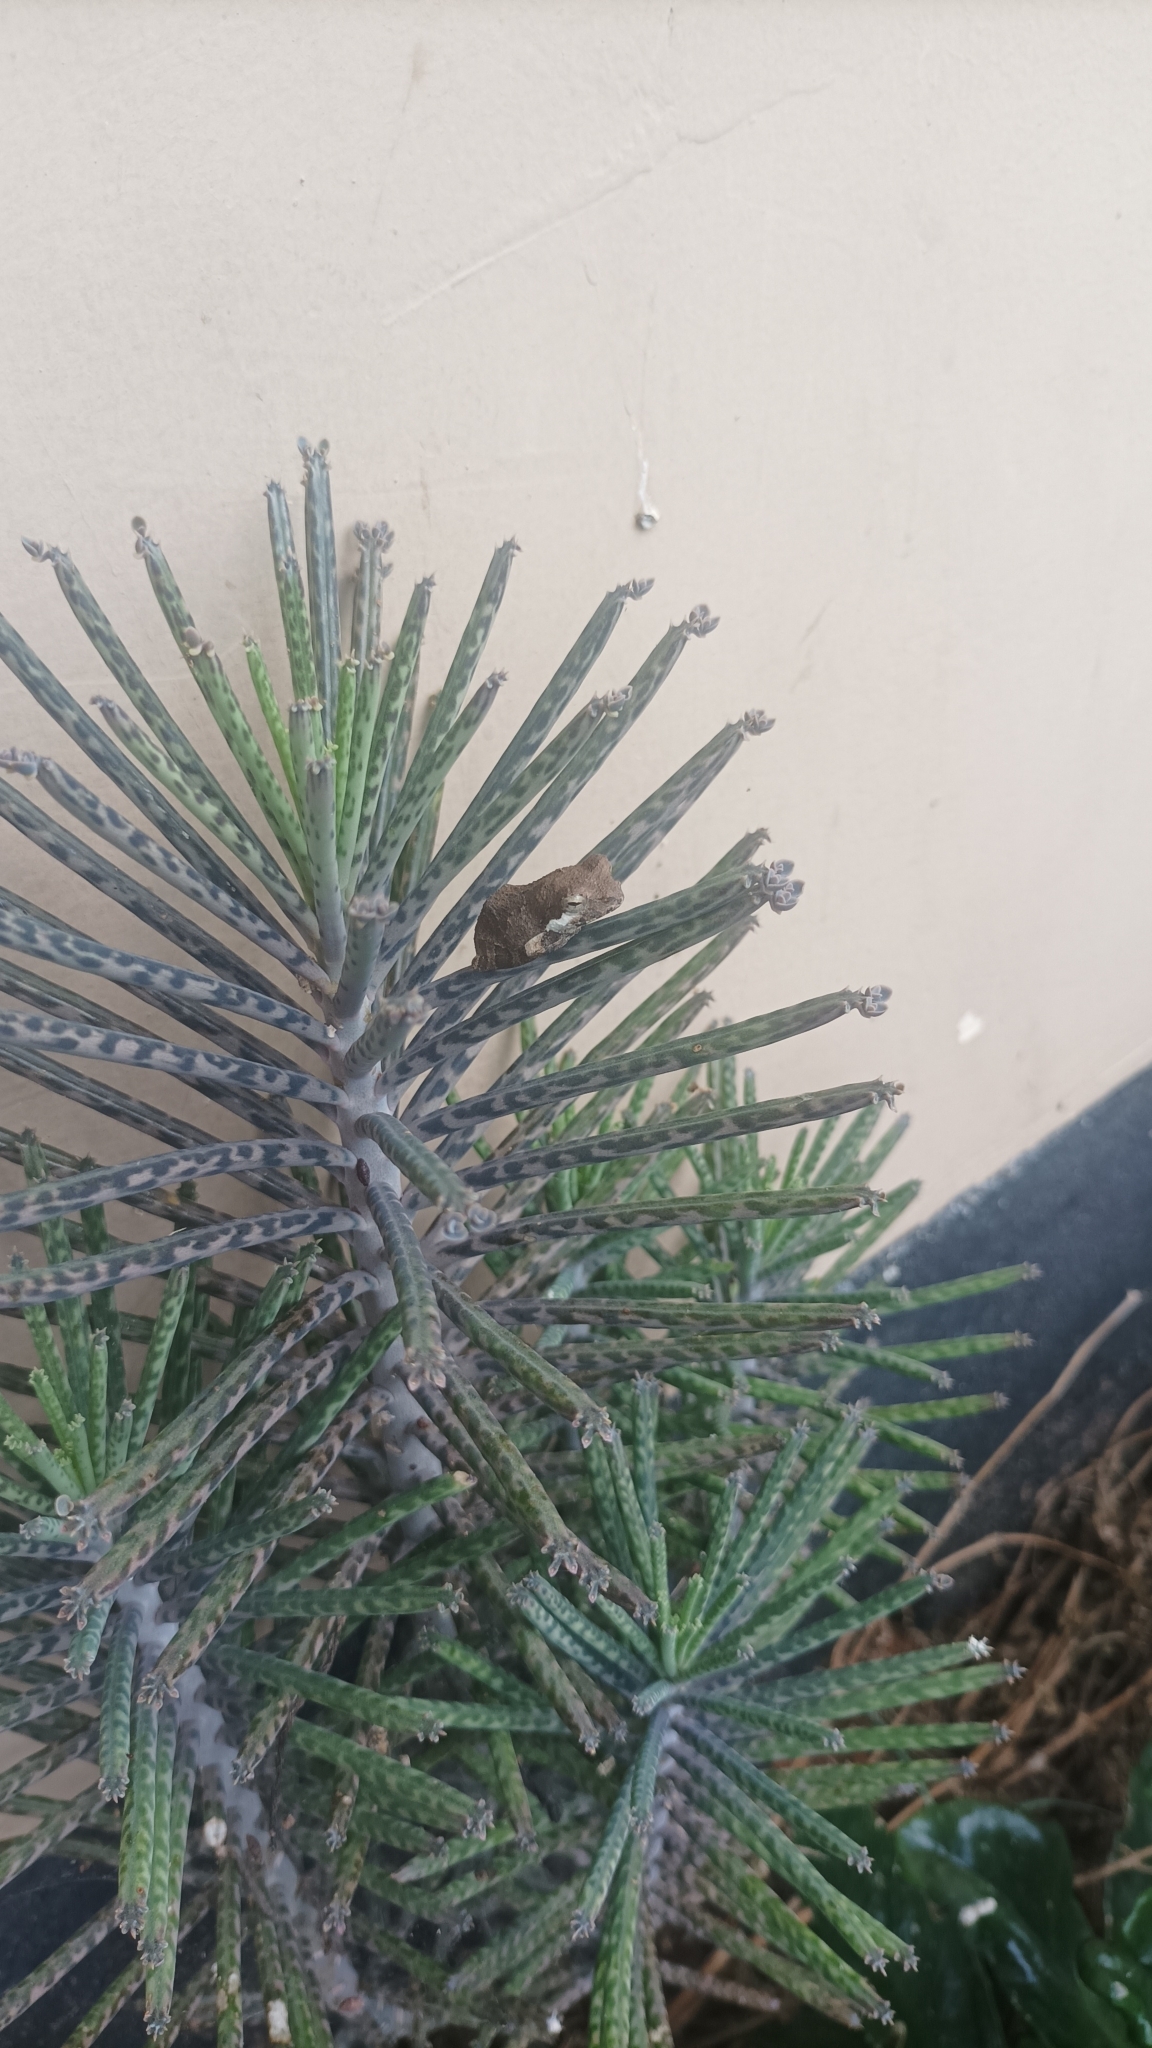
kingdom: Animalia
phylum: Chordata
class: Amphibia
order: Anura
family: Rhacophoridae
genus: Chiromantis
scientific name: Chiromantis xerampelina
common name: African gray treefrog
